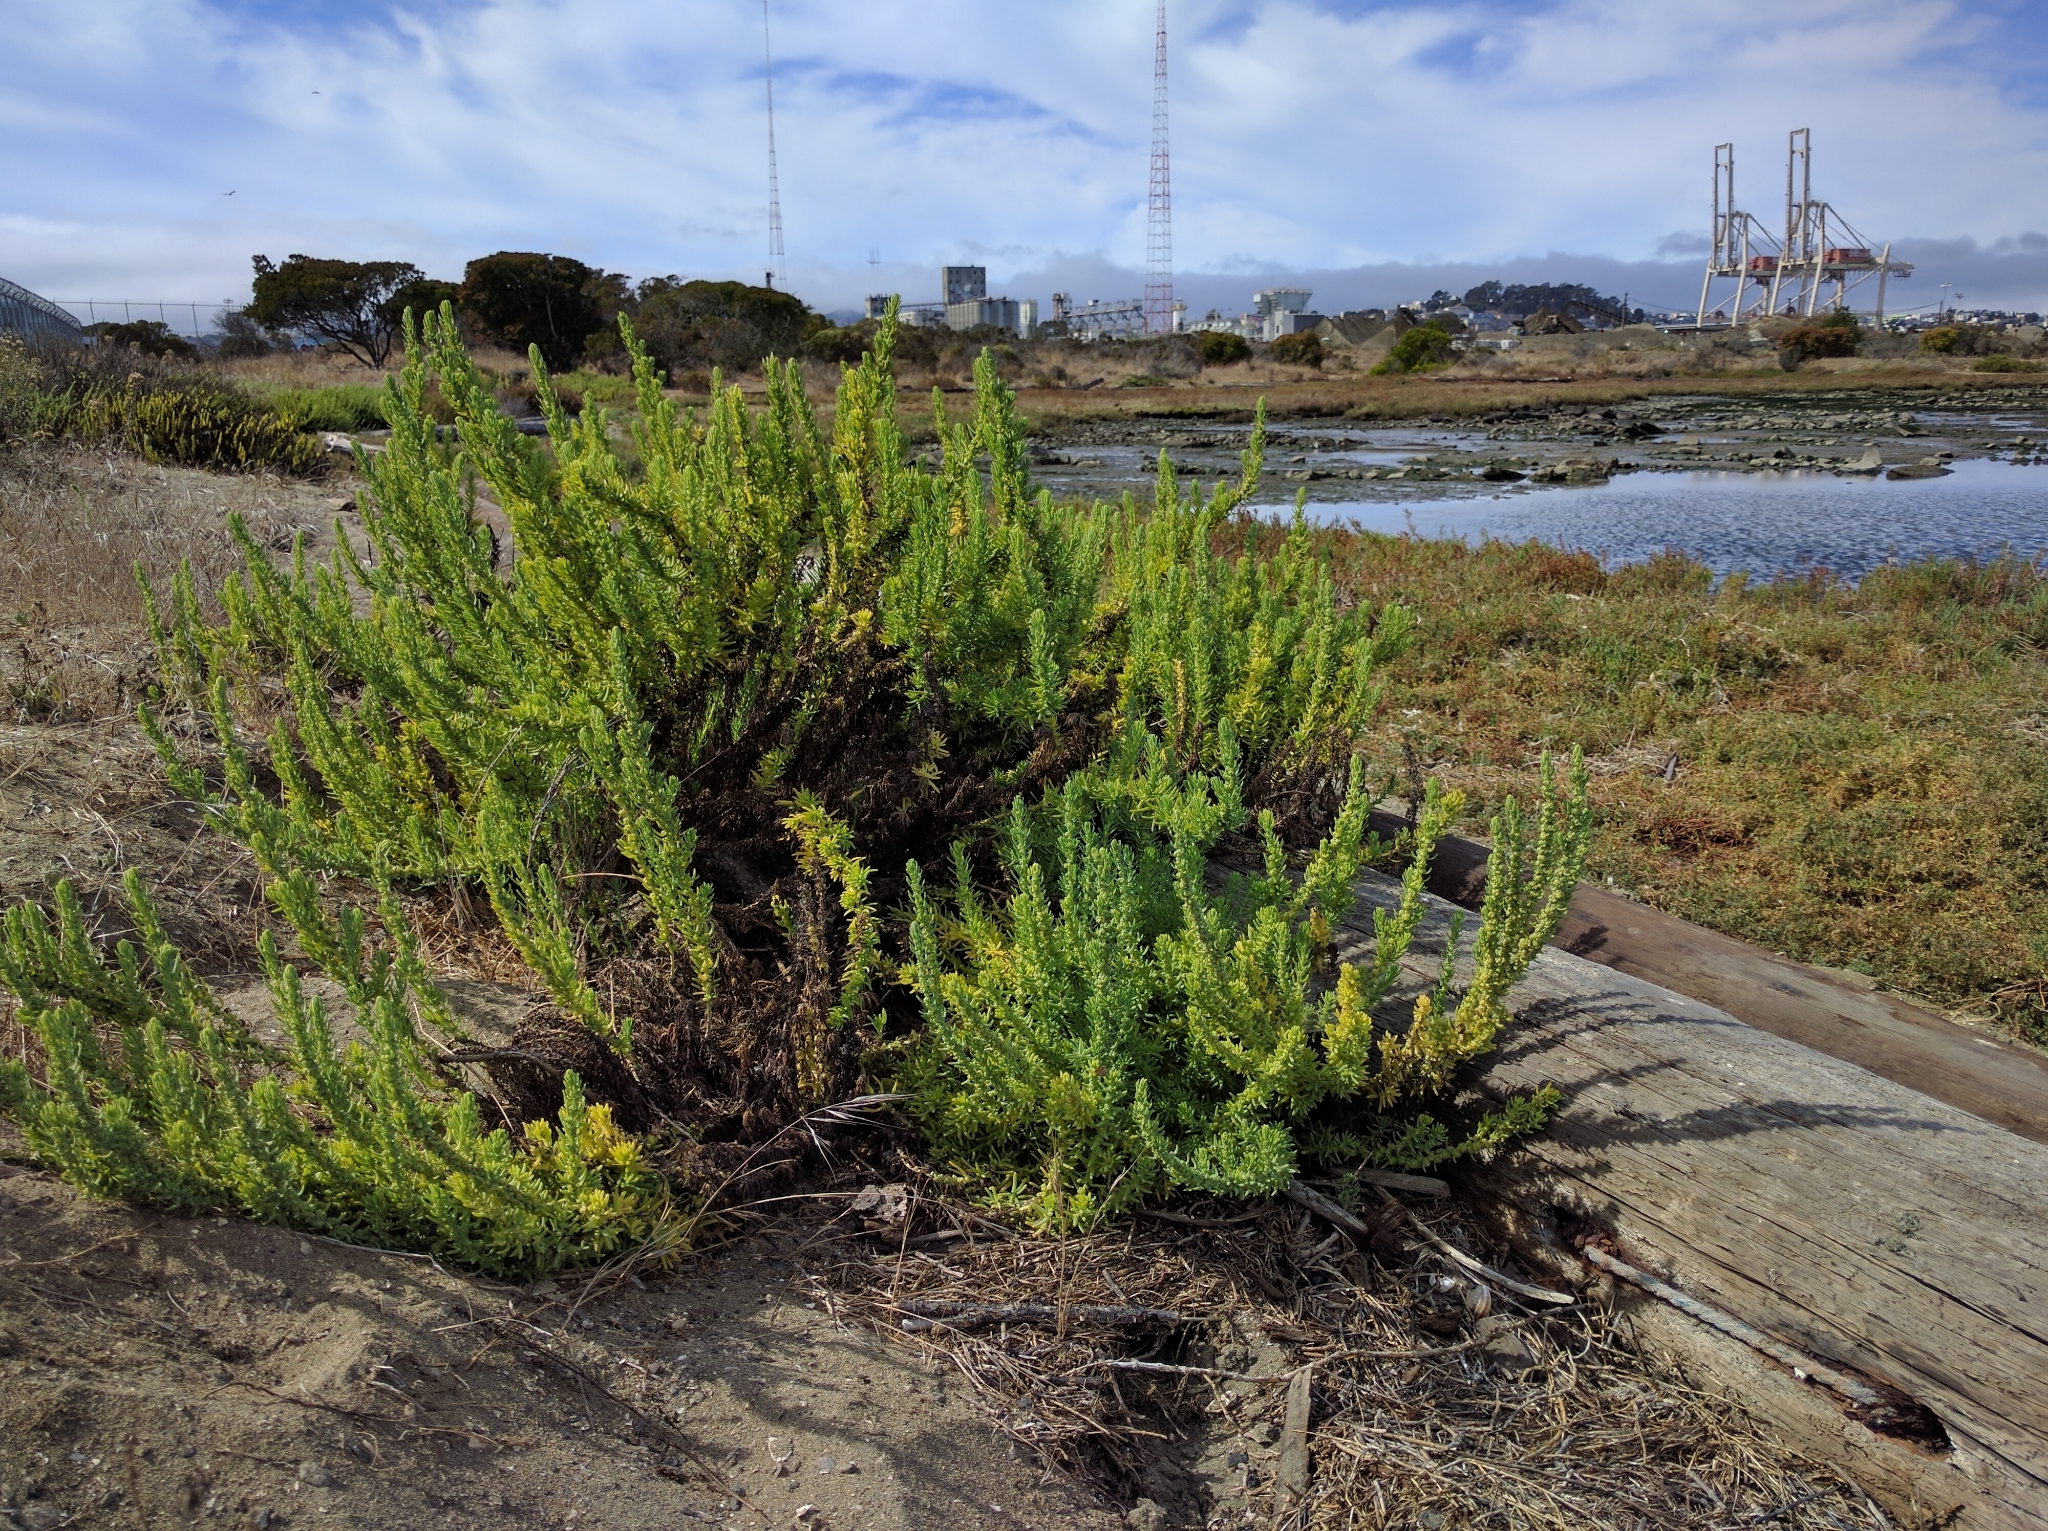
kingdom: Plantae
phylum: Tracheophyta
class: Magnoliopsida
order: Caryophyllales
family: Amaranthaceae
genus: Suaeda
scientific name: Suaeda californica
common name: California sea-blite
